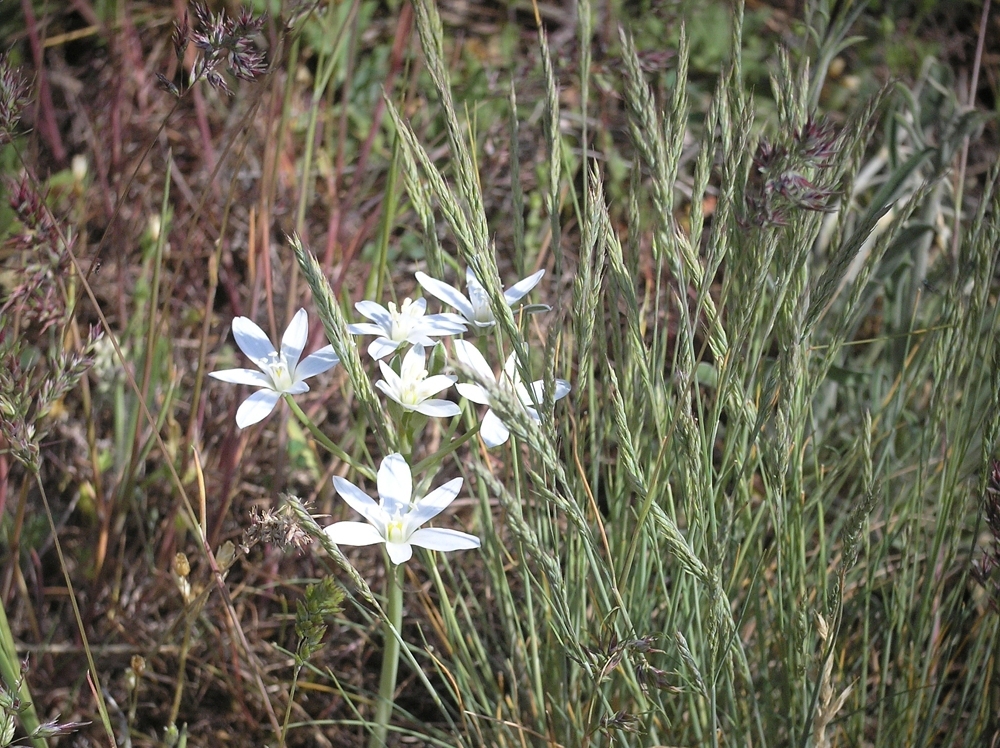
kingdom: Plantae
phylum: Tracheophyta
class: Liliopsida
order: Asparagales
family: Asparagaceae
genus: Ornithogalum
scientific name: Ornithogalum orthophyllum
